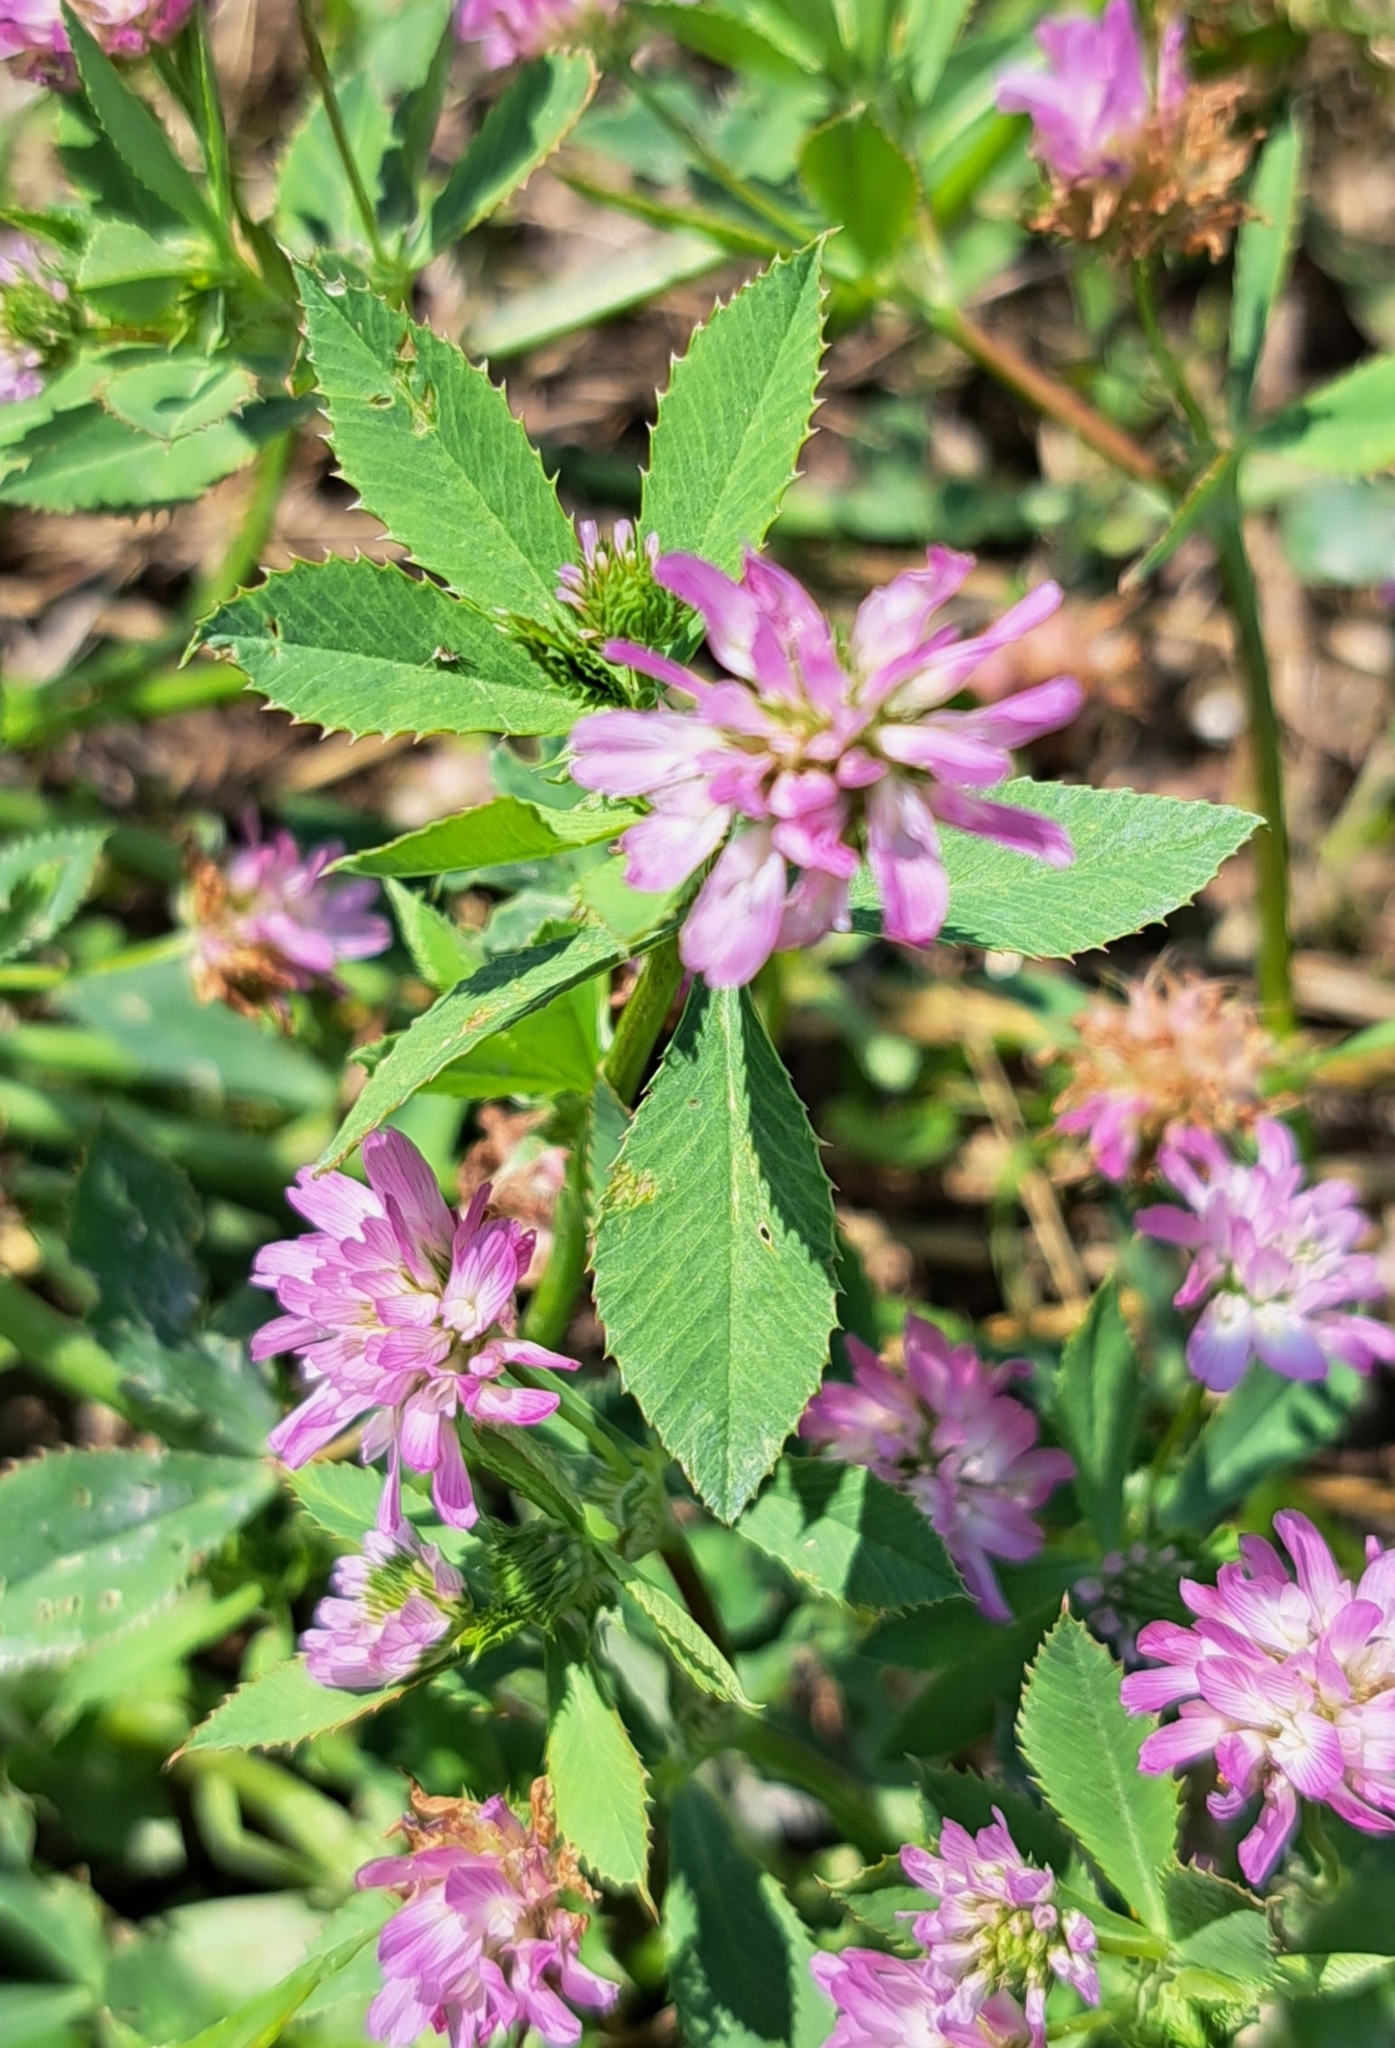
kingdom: Plantae
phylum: Tracheophyta
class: Magnoliopsida
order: Fabales
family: Fabaceae
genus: Trifolium
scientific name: Trifolium resupinatum
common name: Reversed clover
